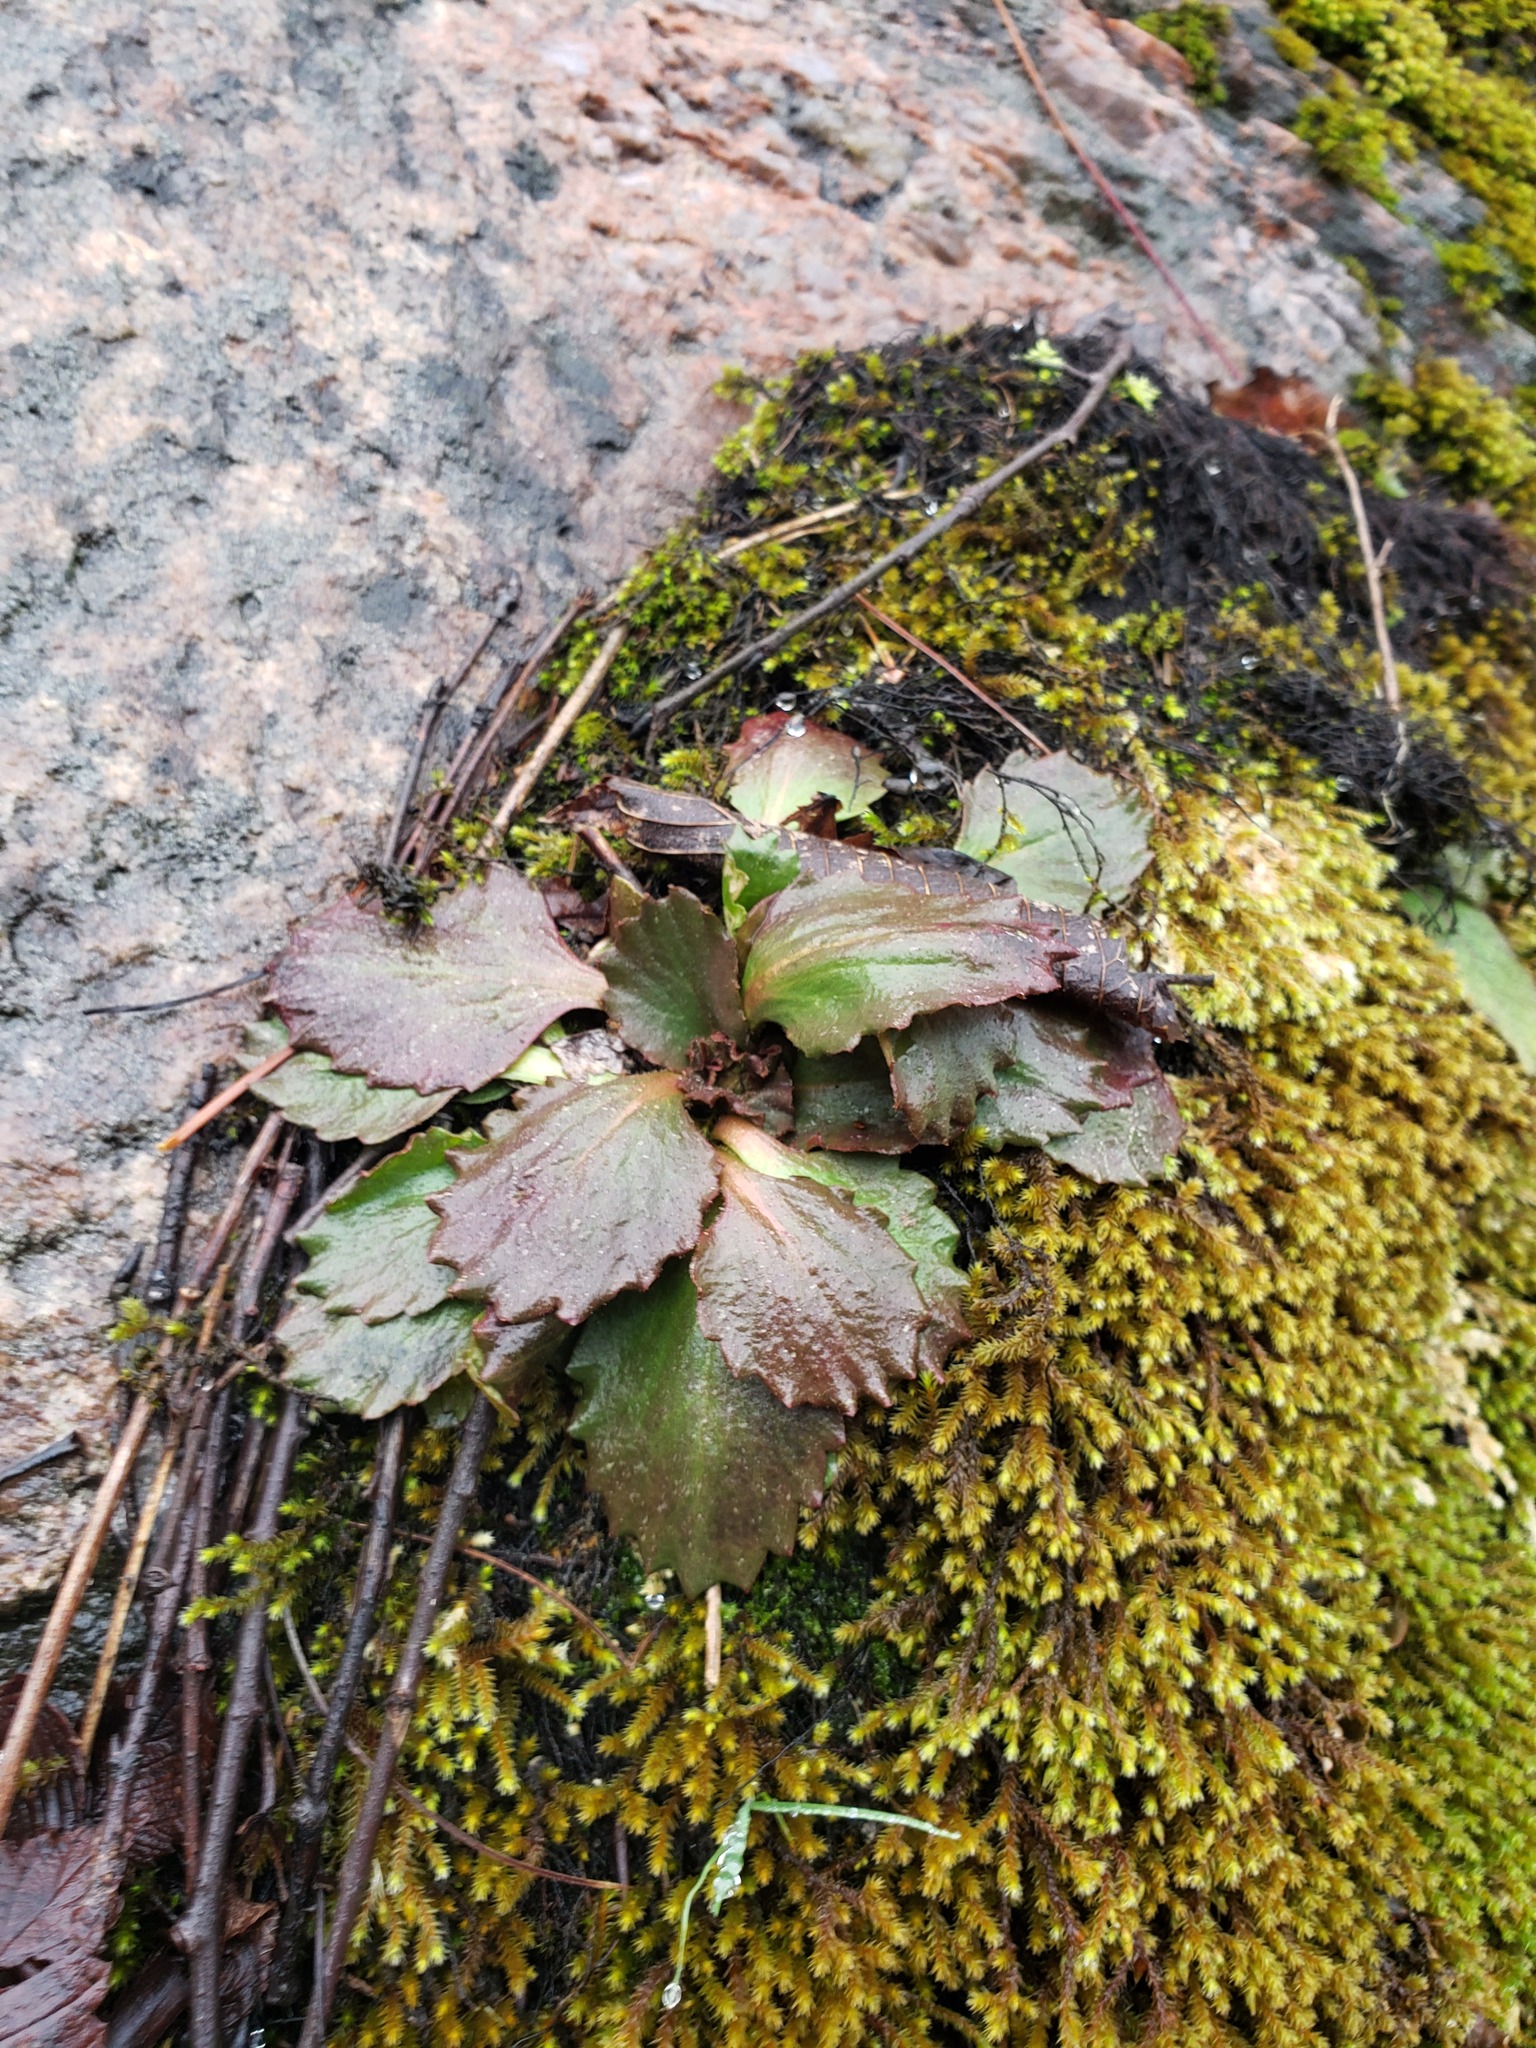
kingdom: Plantae
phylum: Tracheophyta
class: Magnoliopsida
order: Saxifragales
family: Saxifragaceae
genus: Micranthes
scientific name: Micranthes virginiensis
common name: Early saxifrage
